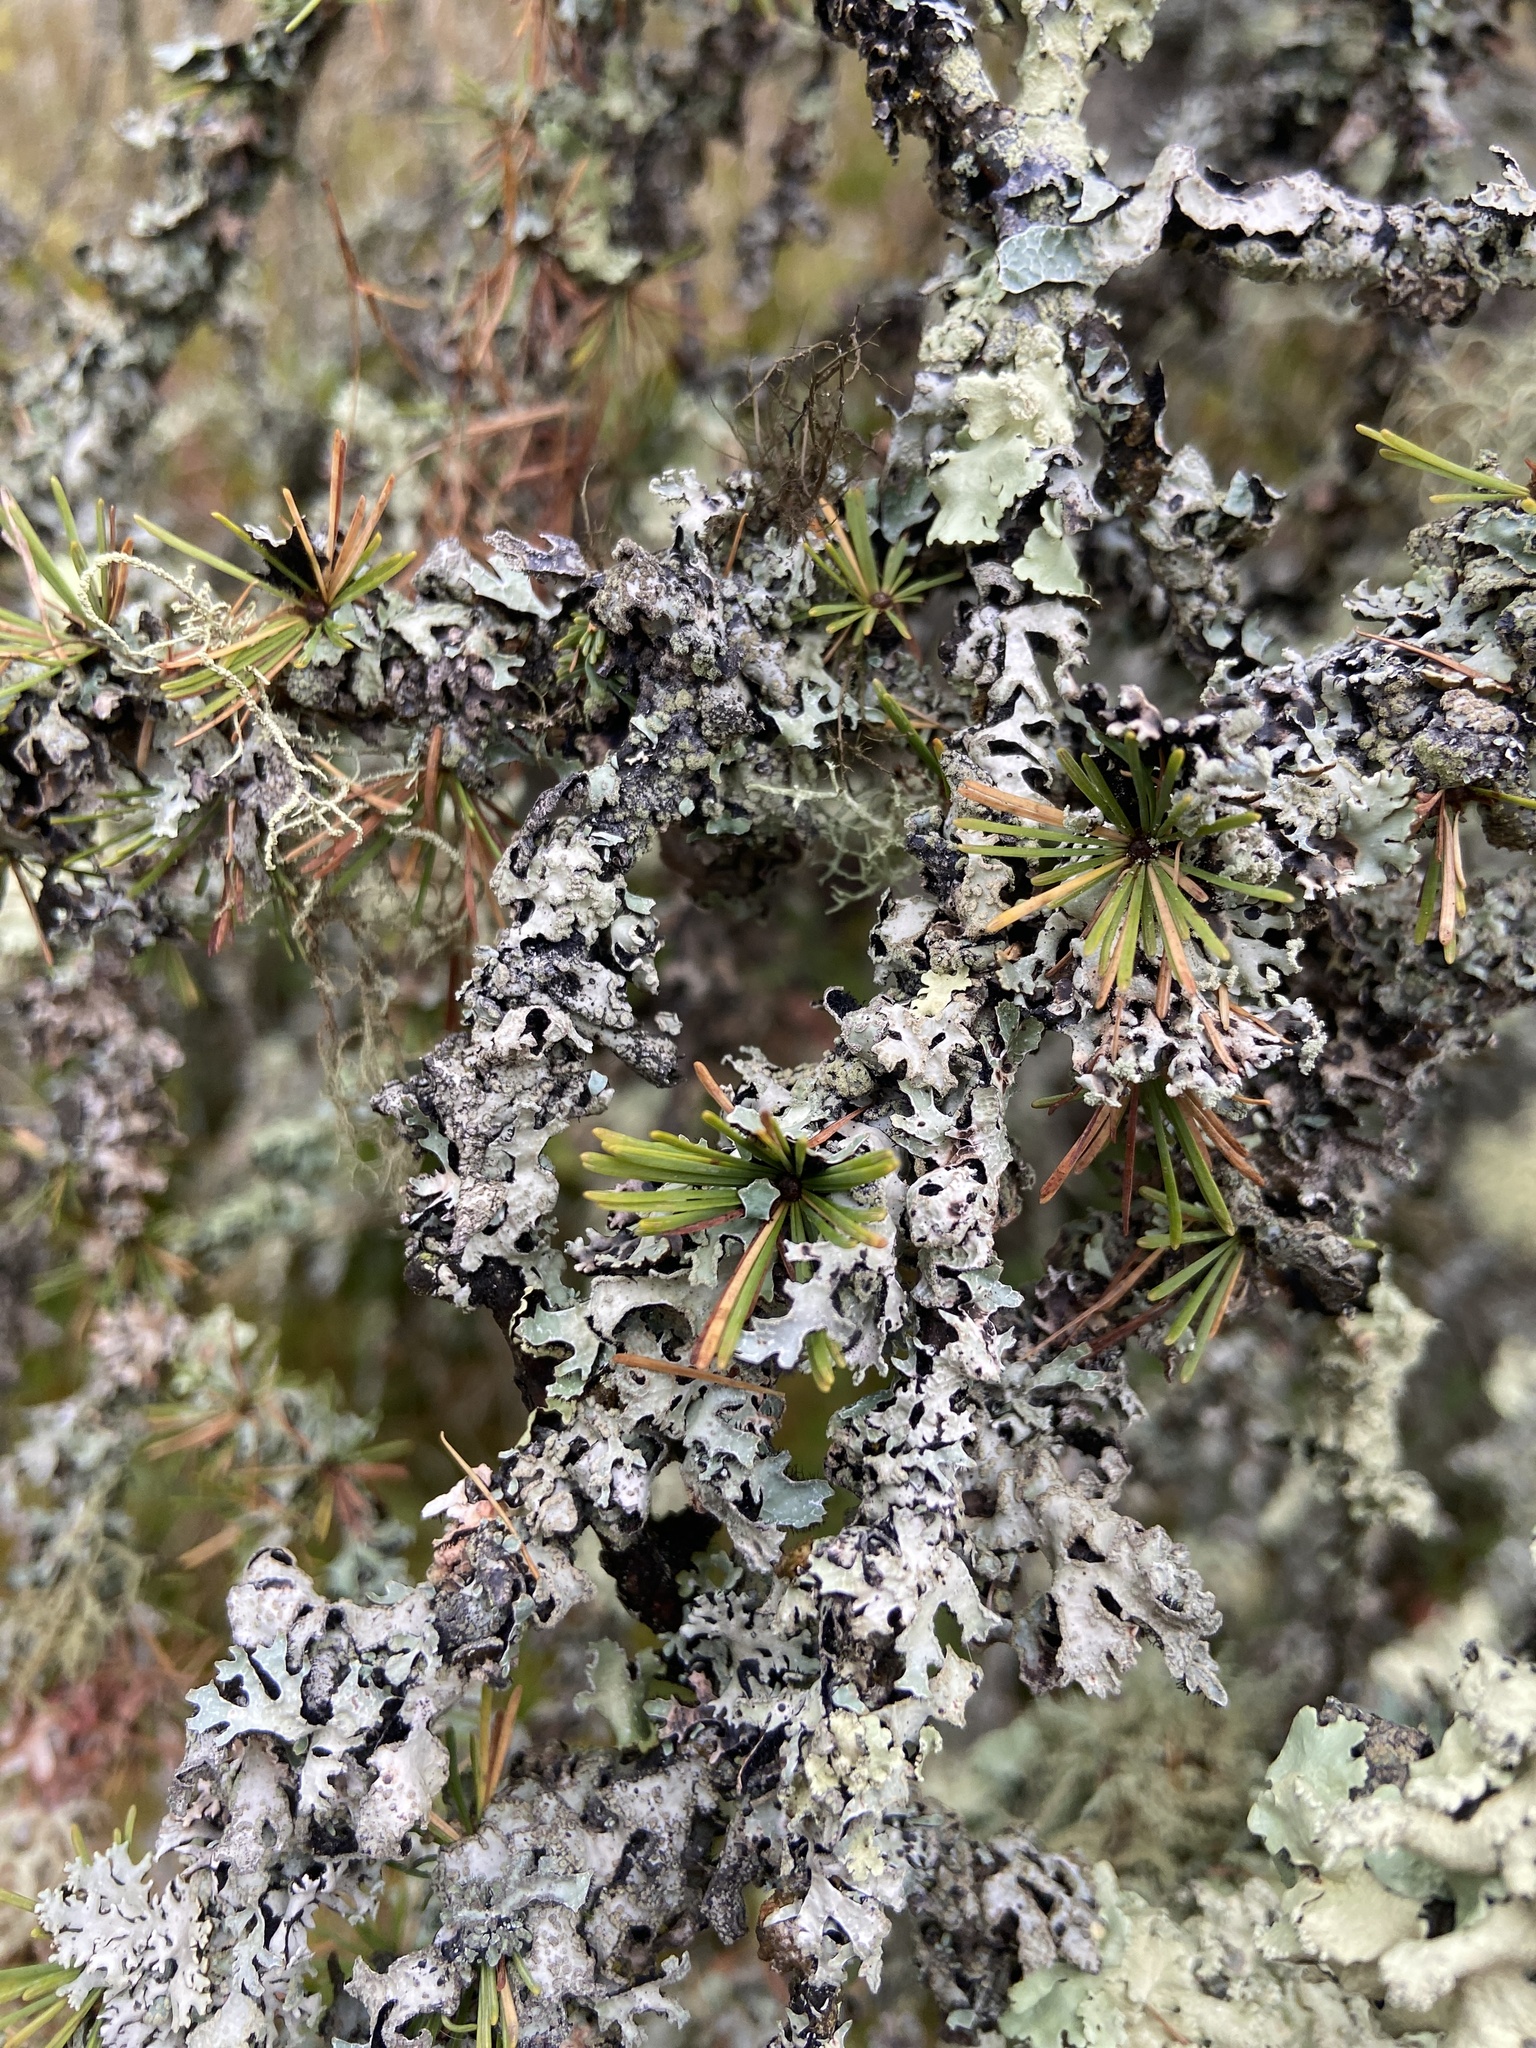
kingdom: Fungi
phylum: Ascomycota
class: Lecanoromycetes
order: Lecanorales
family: Parmeliaceae
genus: Hypogymnia
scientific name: Hypogymnia physodes
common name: Dark crottle
